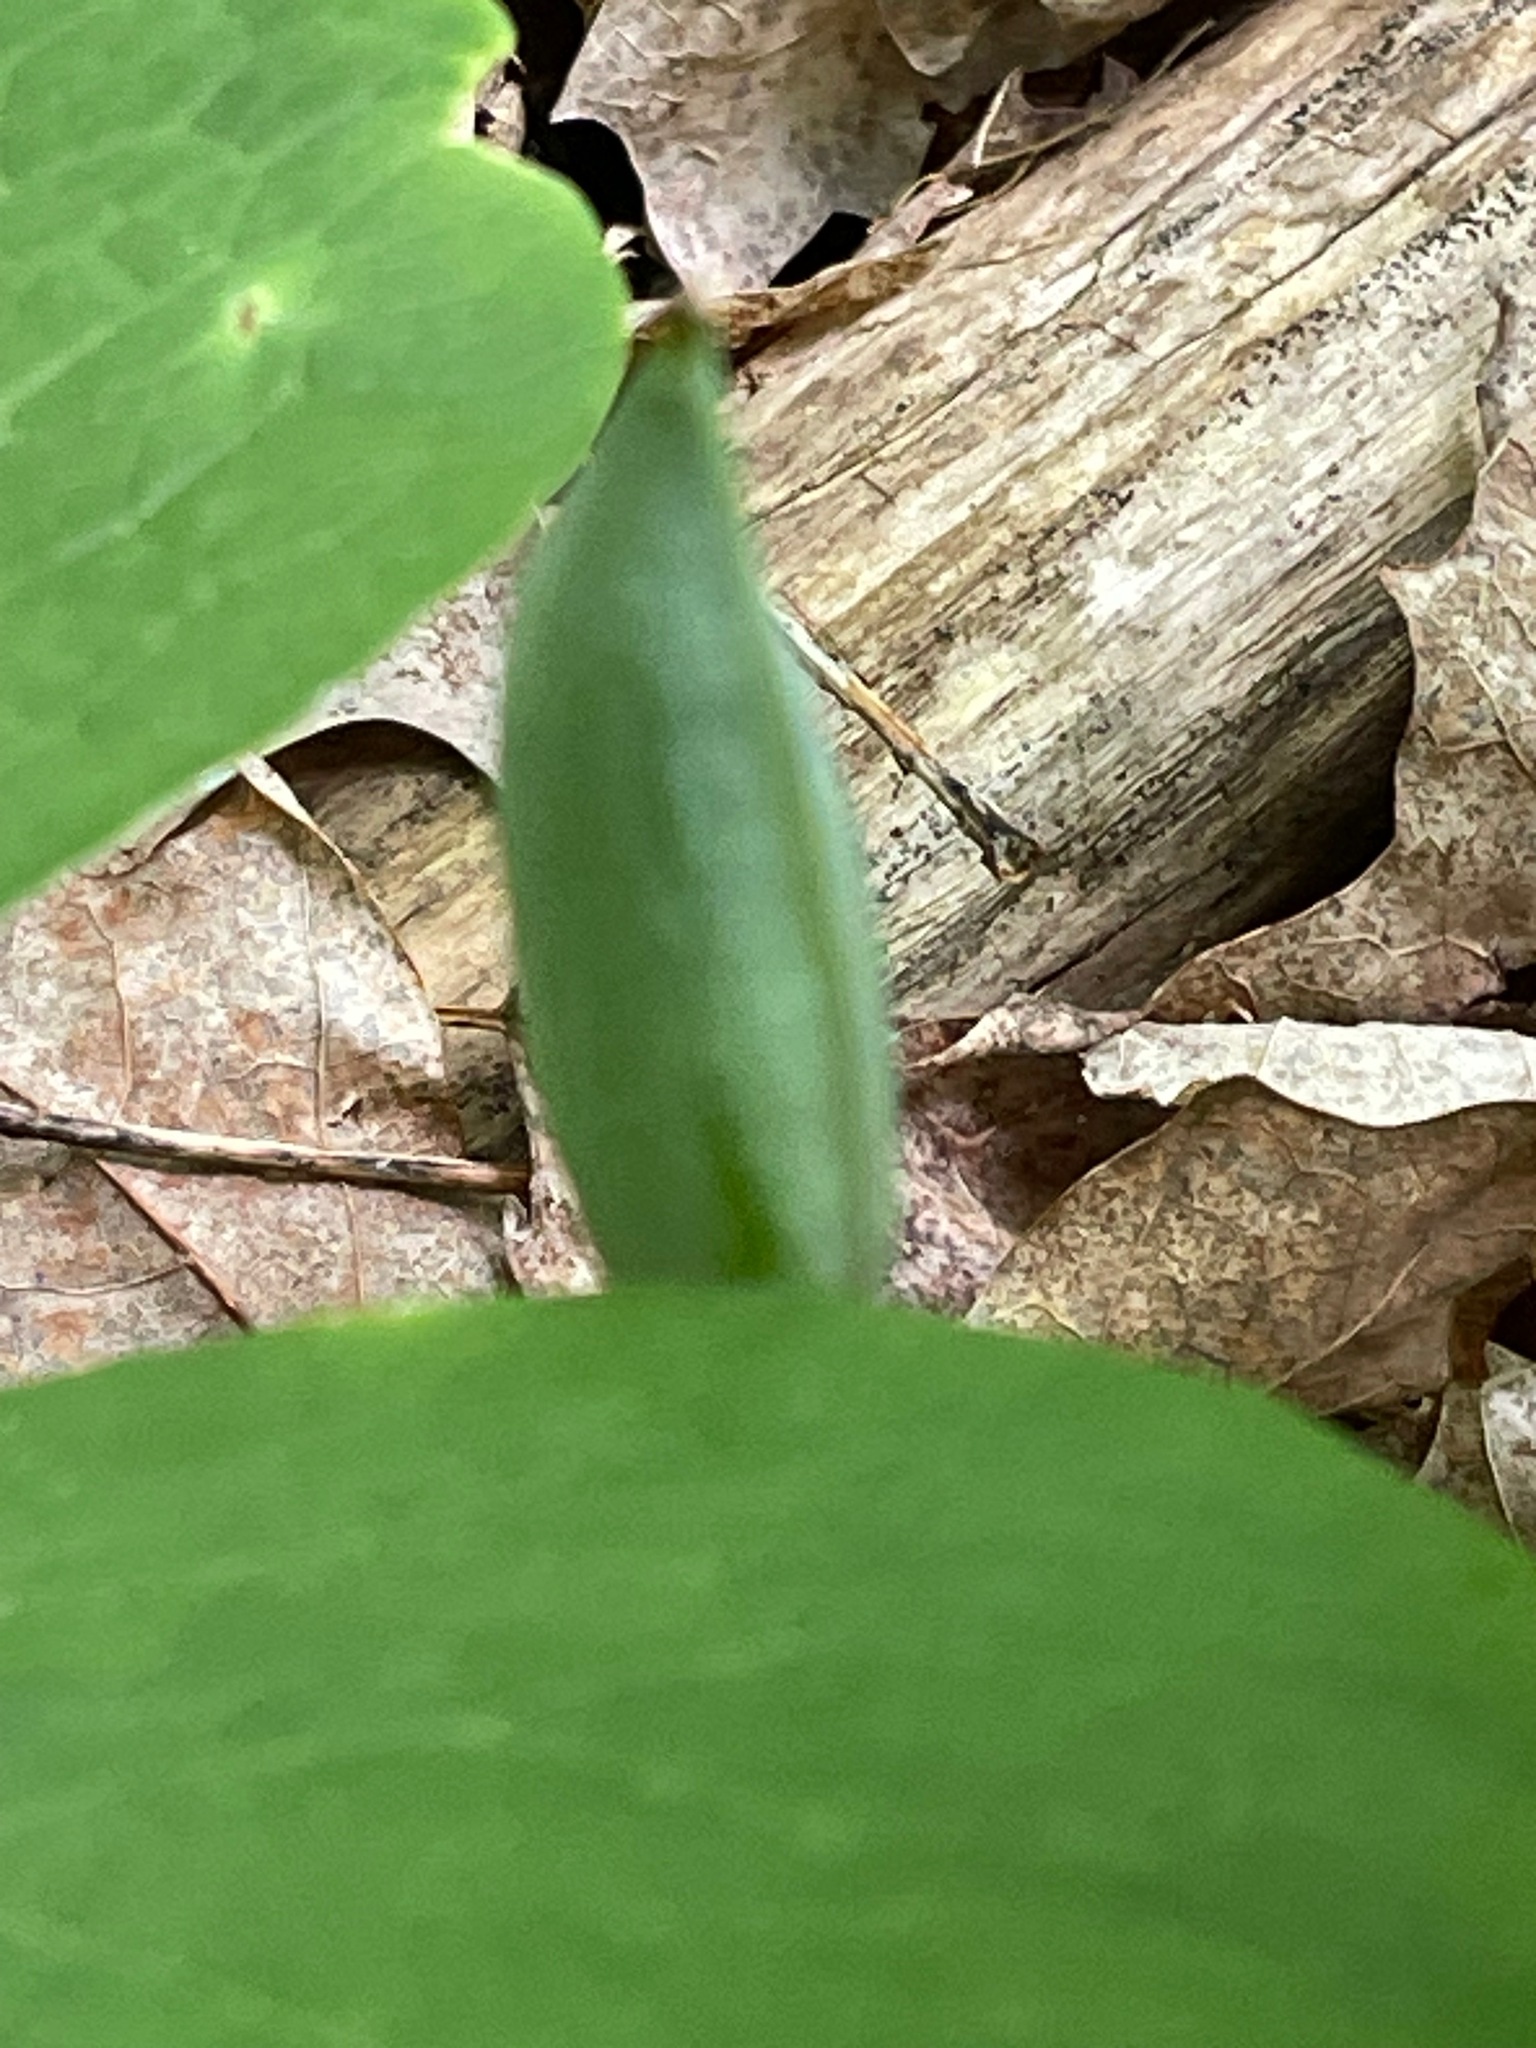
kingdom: Plantae
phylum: Tracheophyta
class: Magnoliopsida
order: Ranunculales
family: Papaveraceae
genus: Sanguinaria
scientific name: Sanguinaria canadensis
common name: Bloodroot
